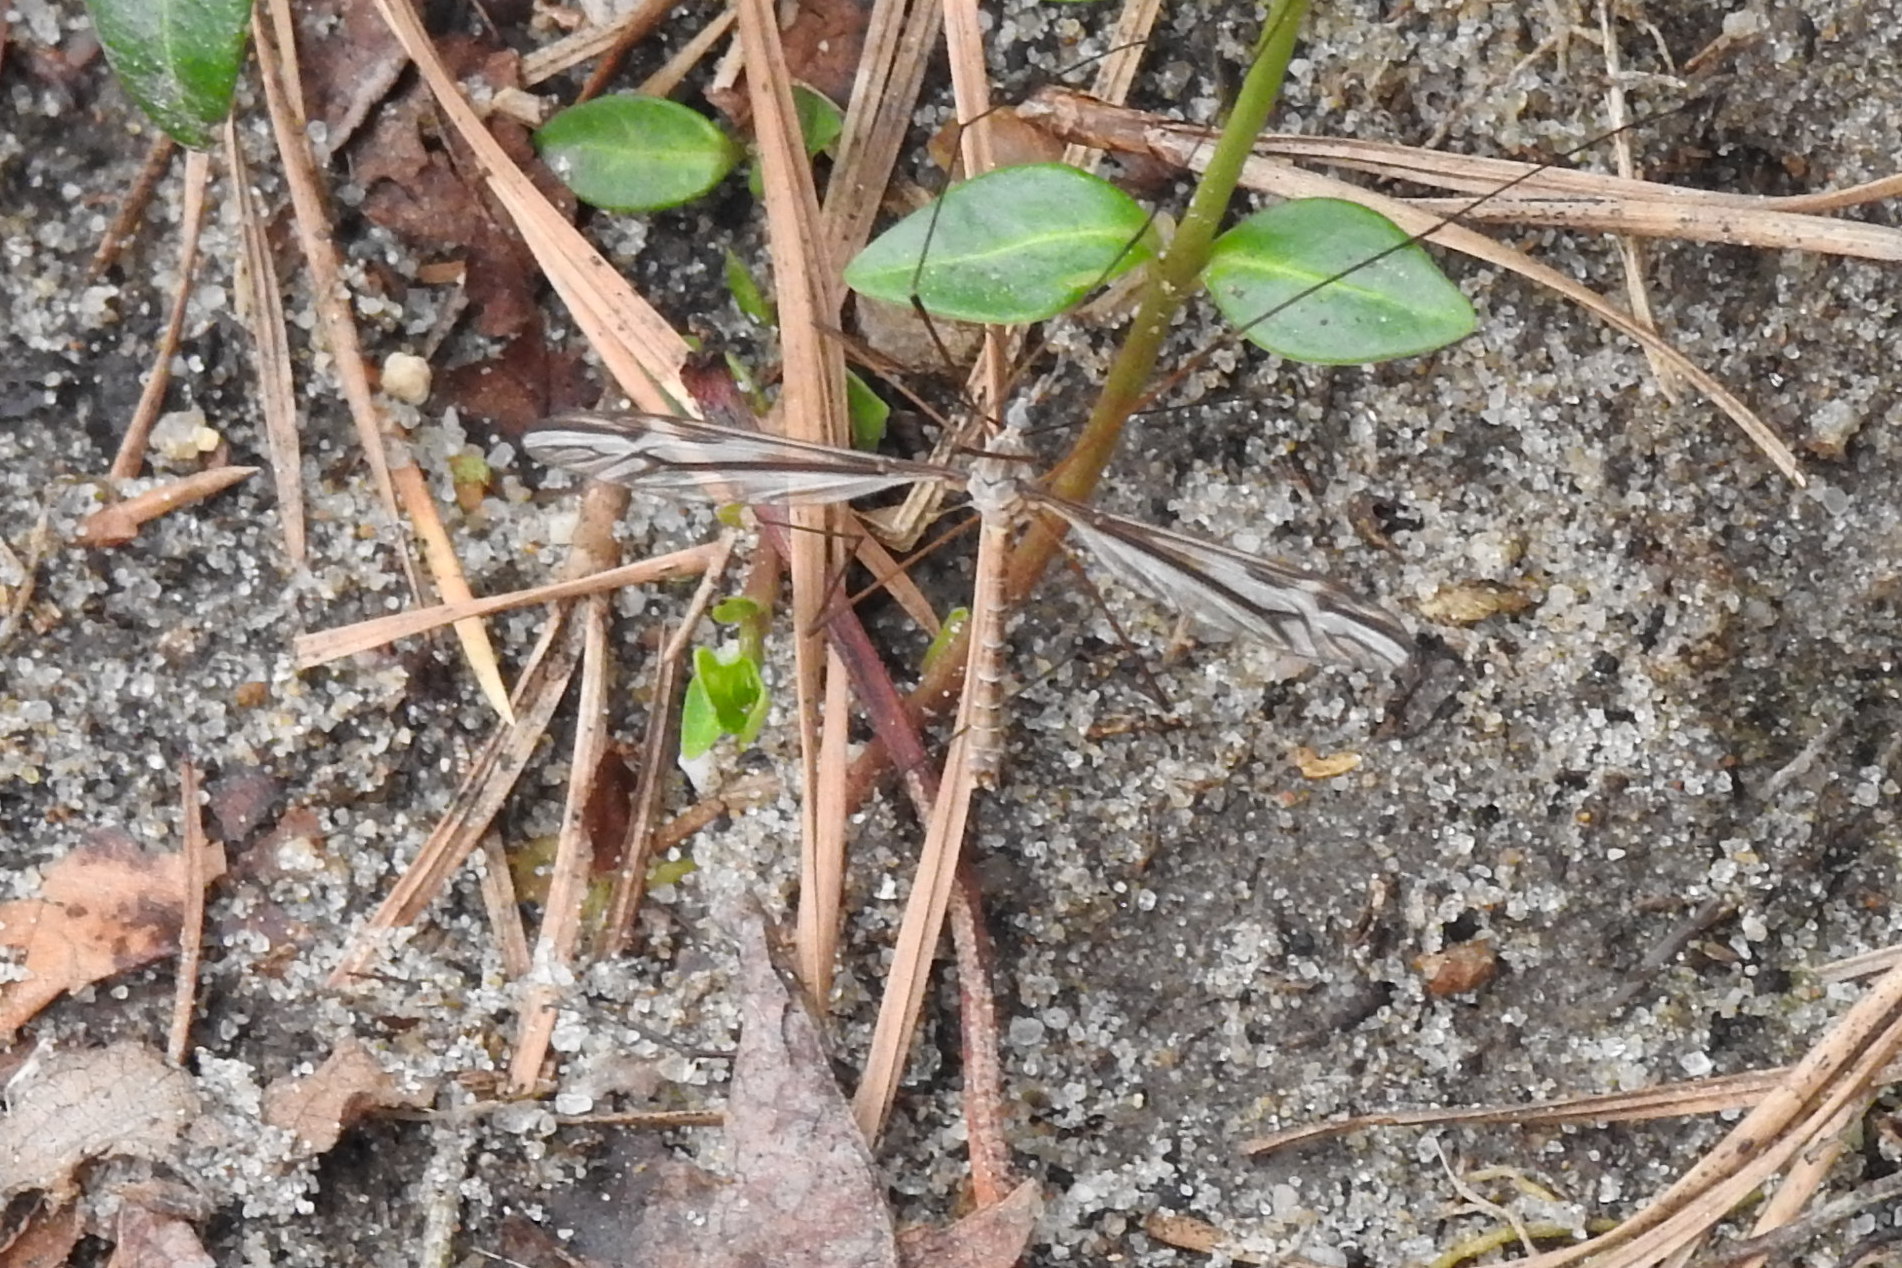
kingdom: Animalia
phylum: Arthropoda
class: Insecta
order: Diptera
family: Tipulidae
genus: Tipula
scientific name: Tipula furca
